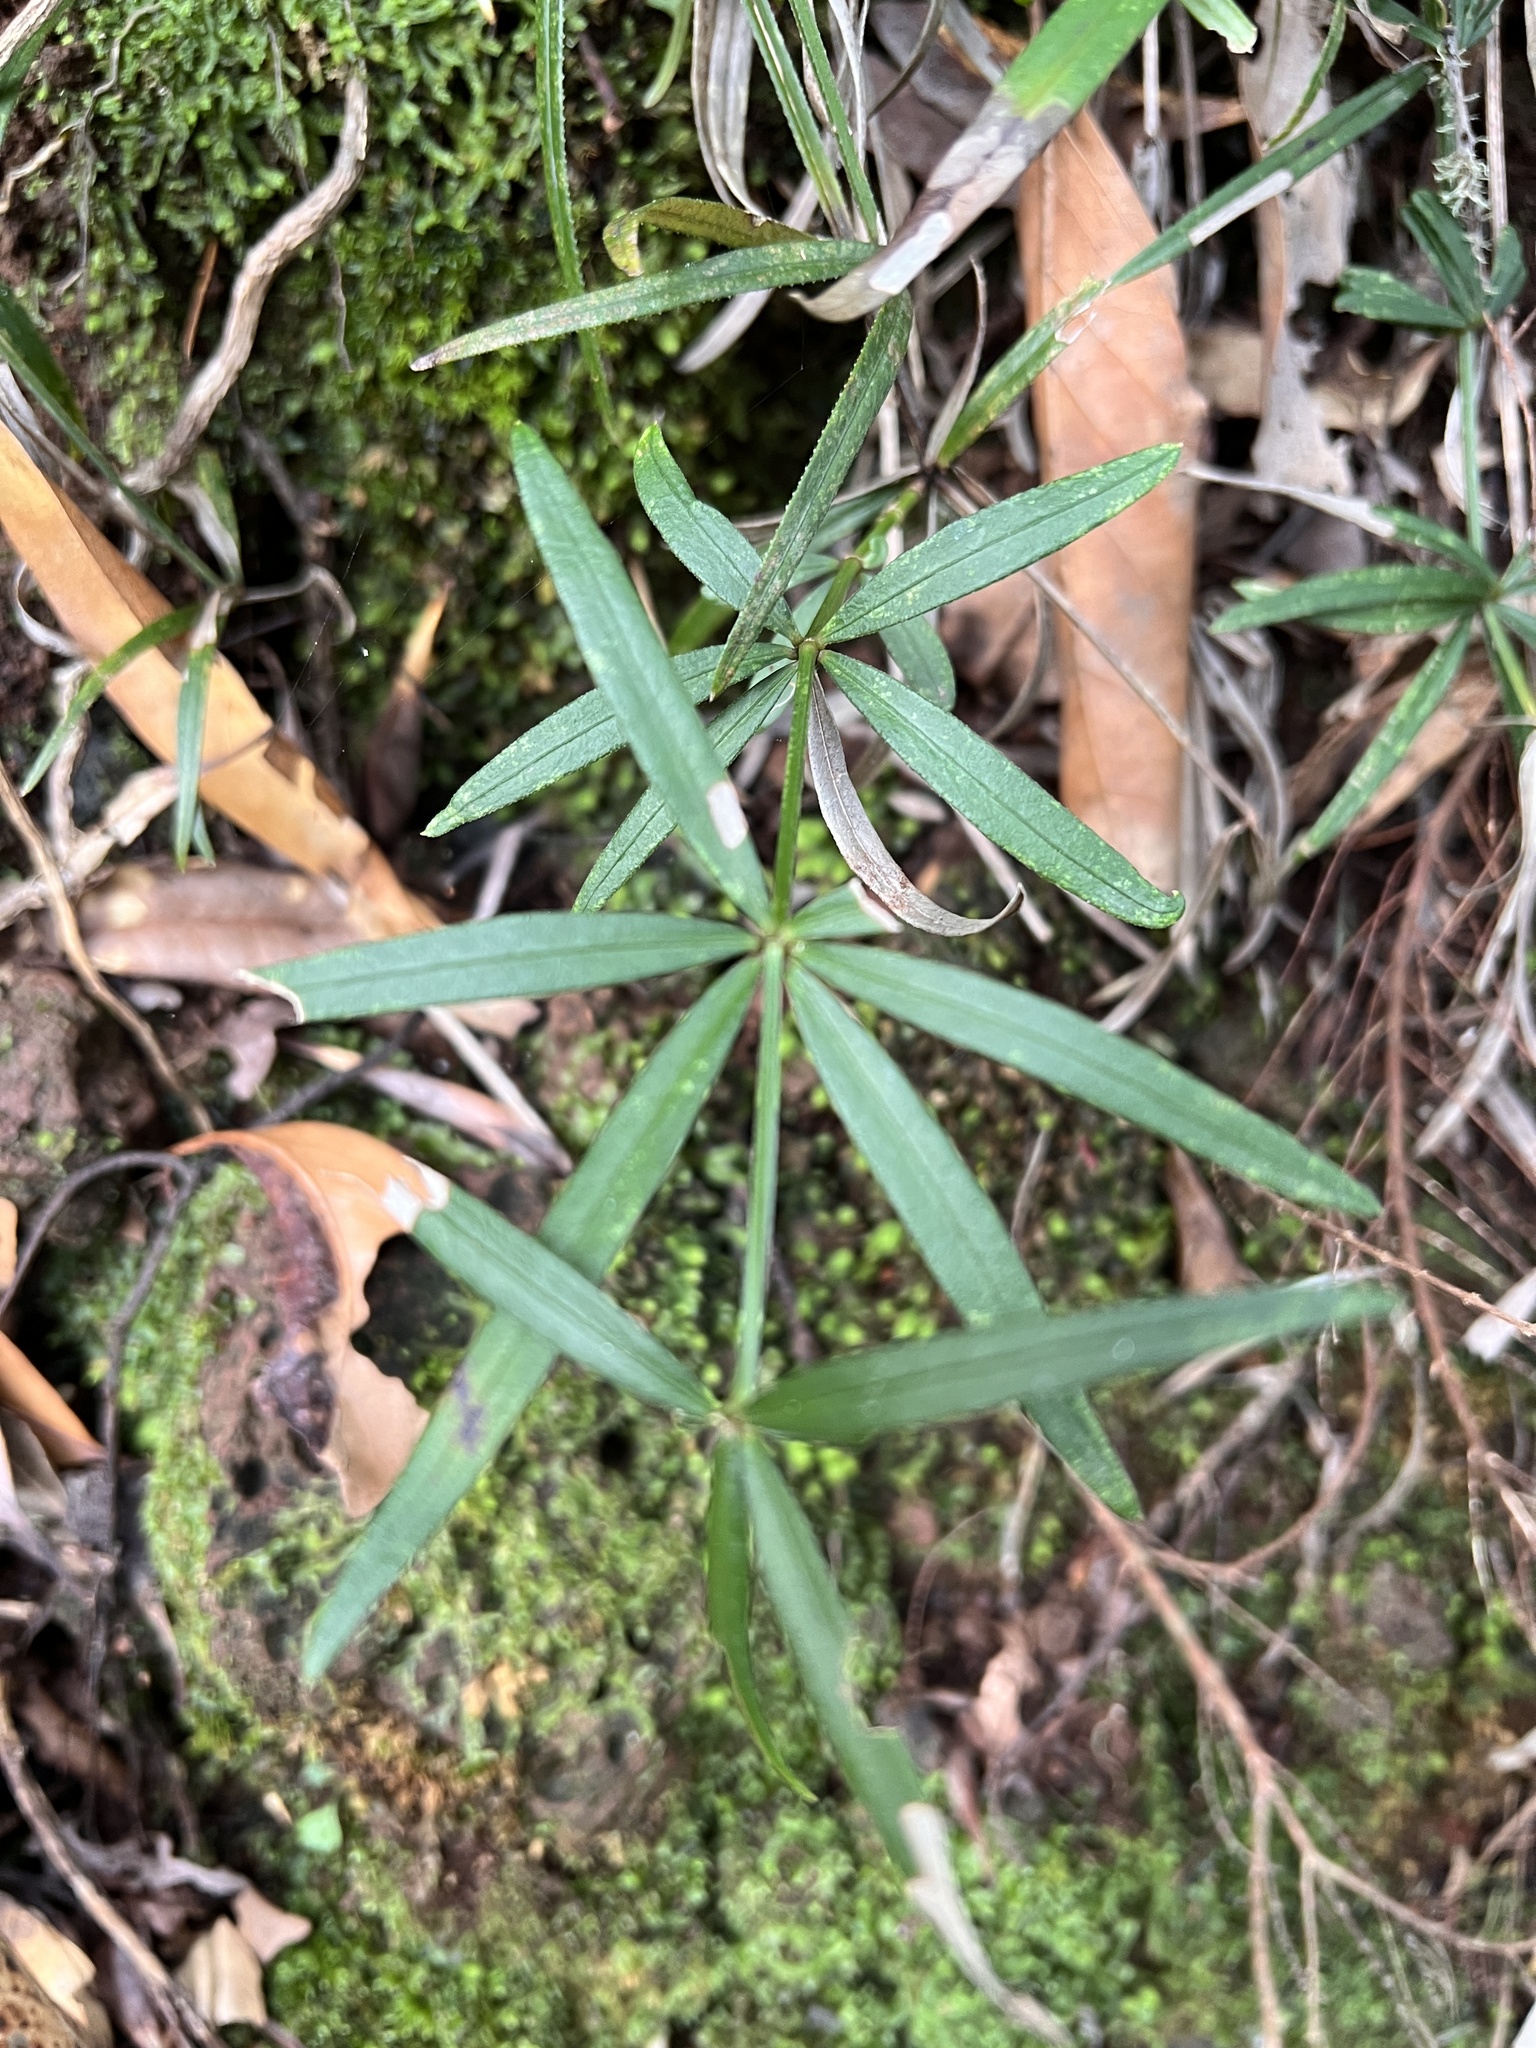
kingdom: Plantae
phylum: Tracheophyta
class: Magnoliopsida
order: Gentianales
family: Rubiaceae
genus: Rubia
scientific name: Rubia occidens
